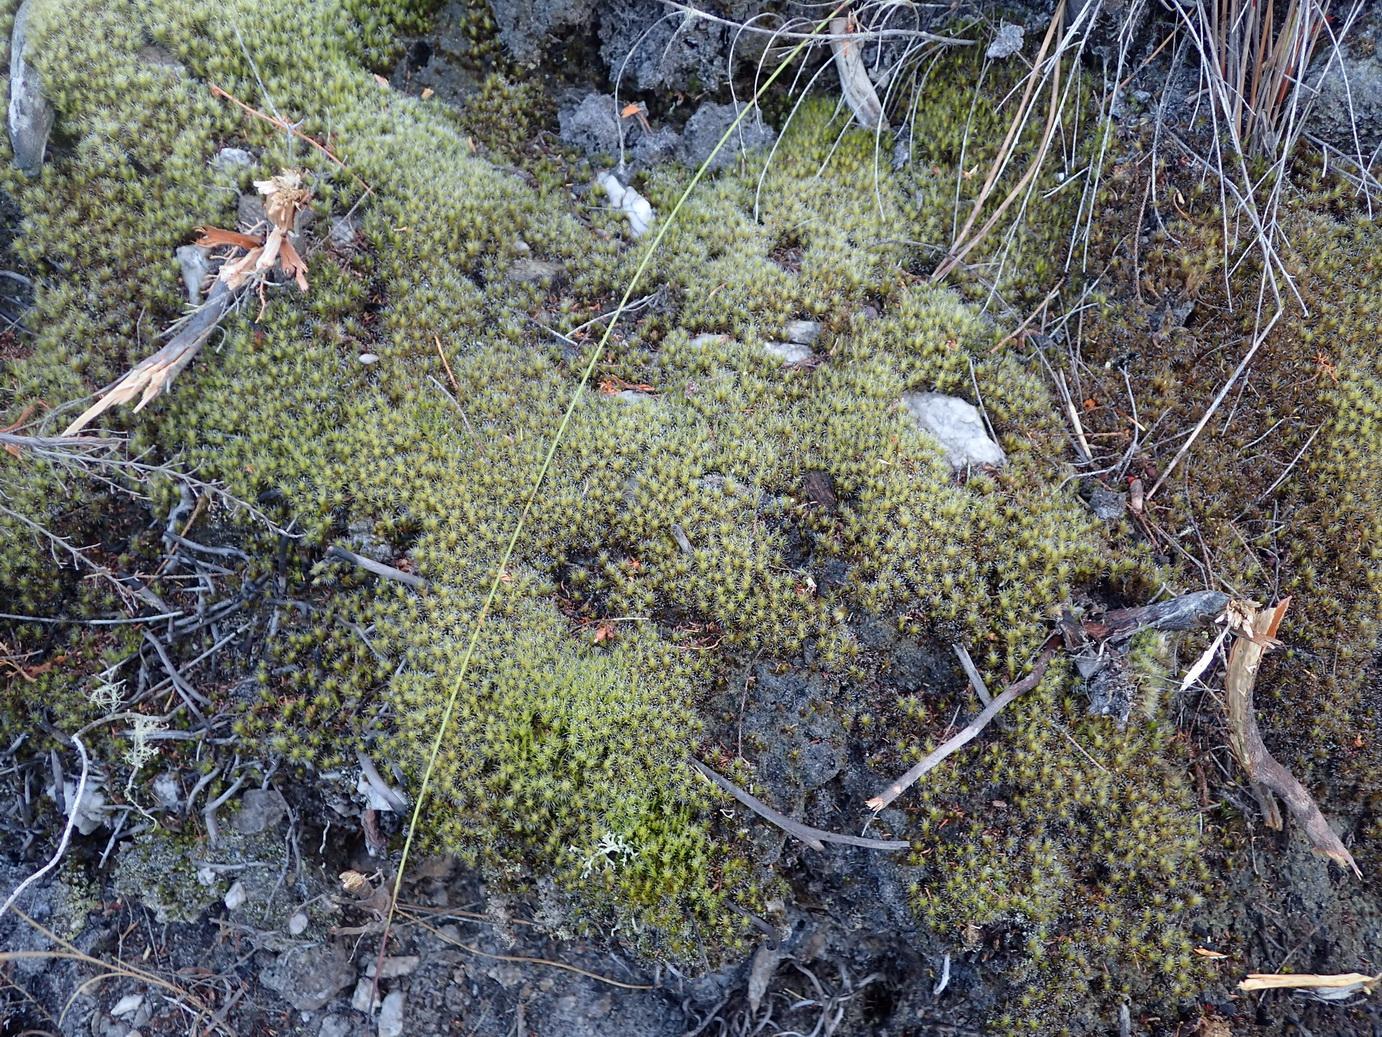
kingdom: Plantae
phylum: Bryophyta
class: Bryopsida
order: Dicranales
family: Leucobryaceae
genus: Campylopus
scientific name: Campylopus introflexus
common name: Heath star moss
